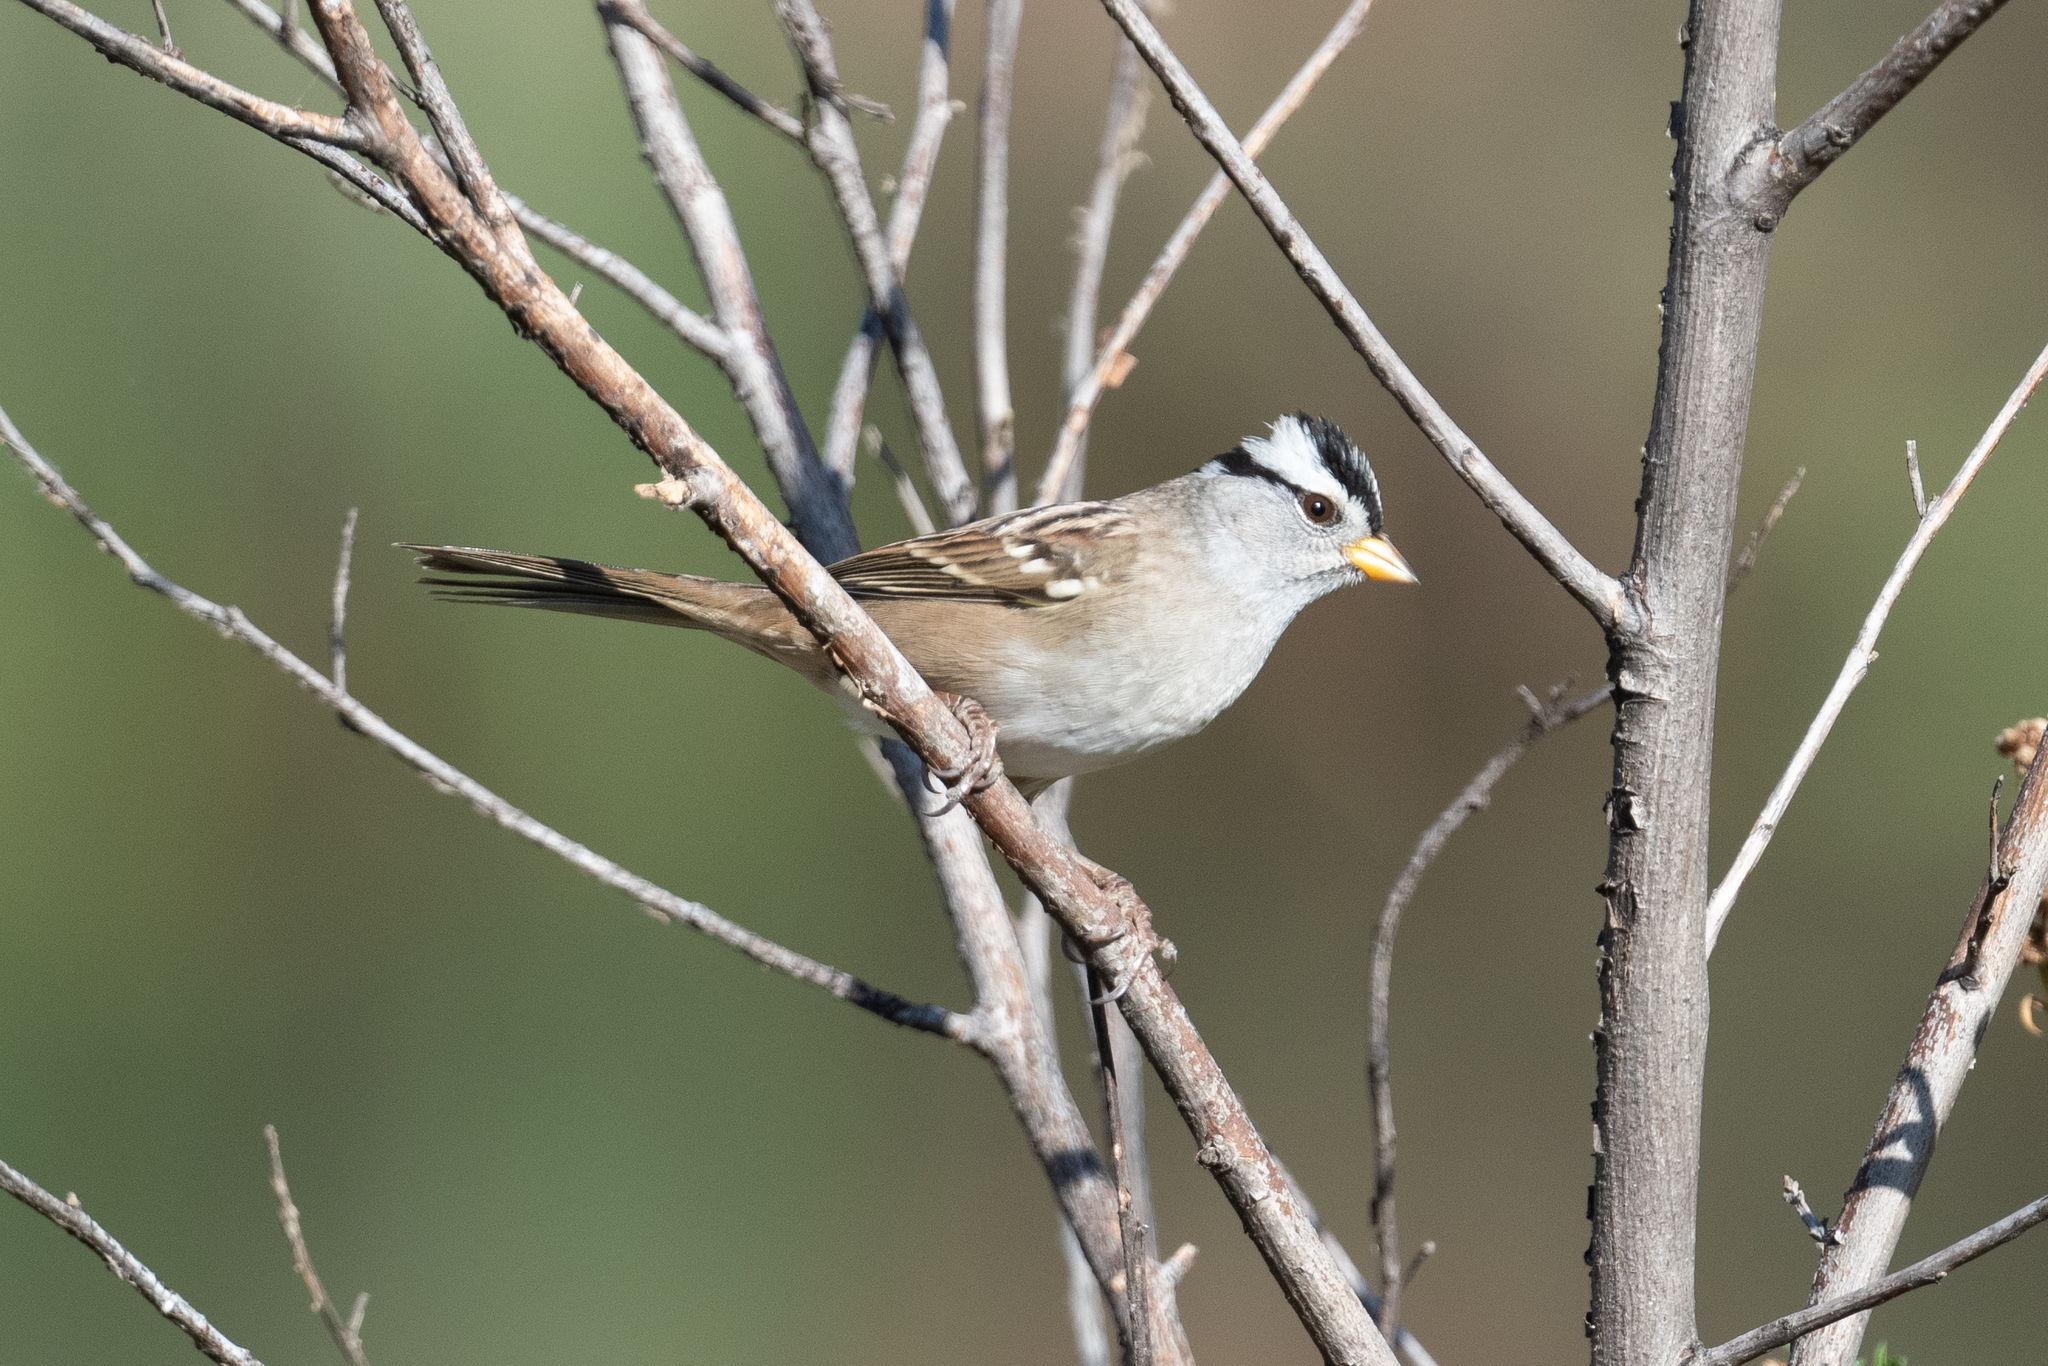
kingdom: Animalia
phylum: Chordata
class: Aves
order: Passeriformes
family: Passerellidae
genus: Zonotrichia
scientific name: Zonotrichia leucophrys
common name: White-crowned sparrow
